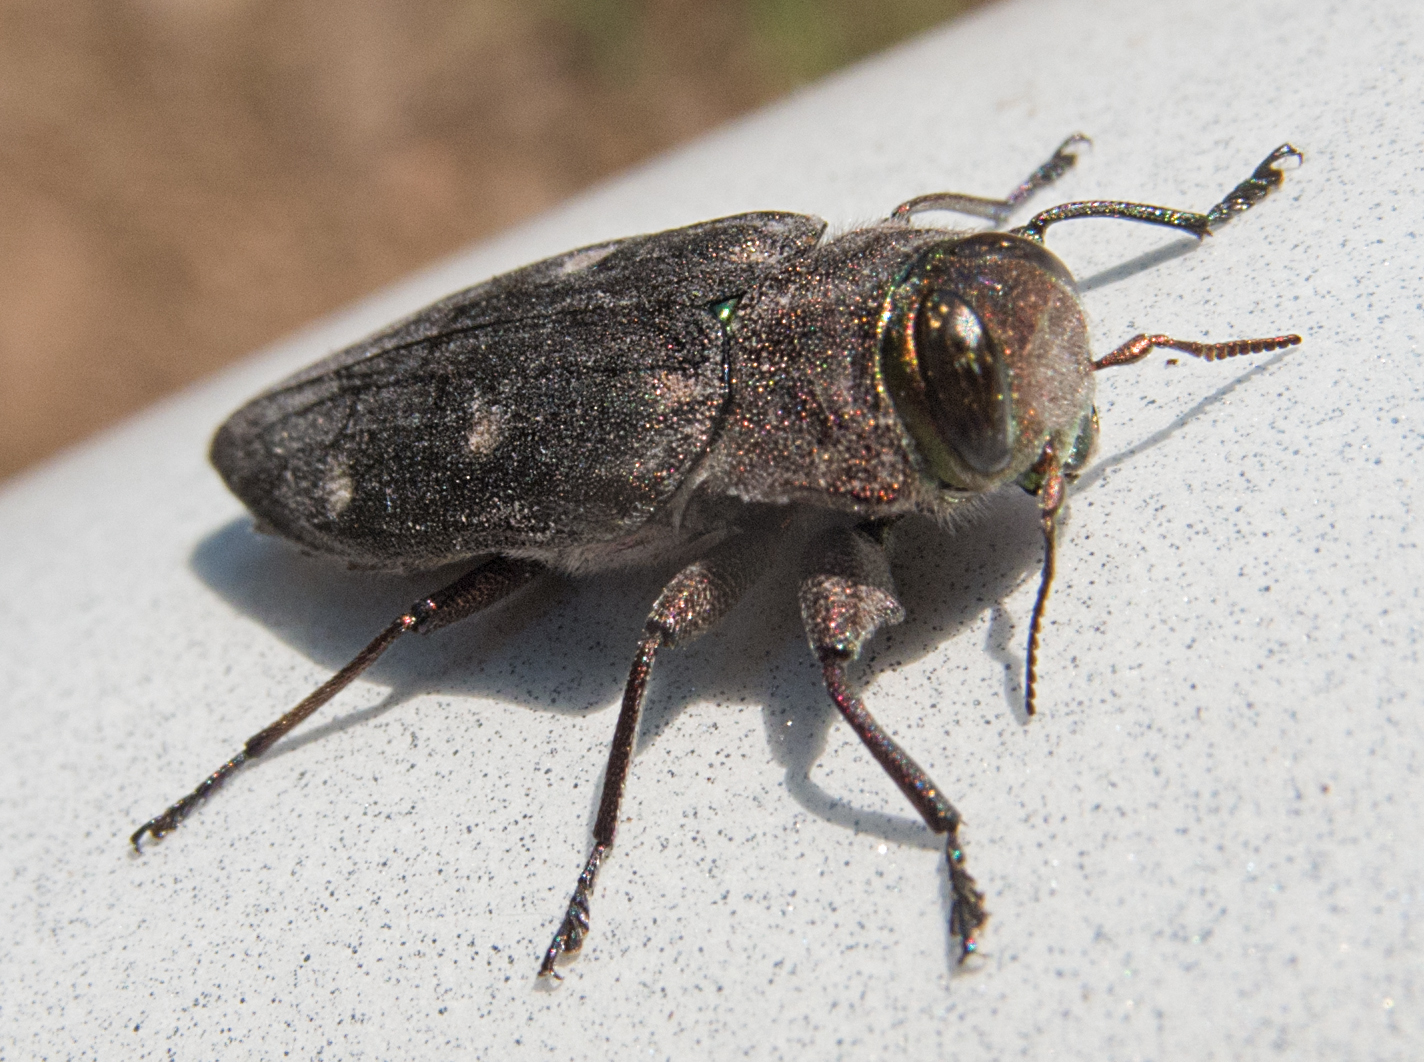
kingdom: Animalia
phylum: Arthropoda
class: Insecta
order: Coleoptera
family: Buprestidae
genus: Chrysobothris
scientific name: Chrysobothris affinis
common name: Beetle
